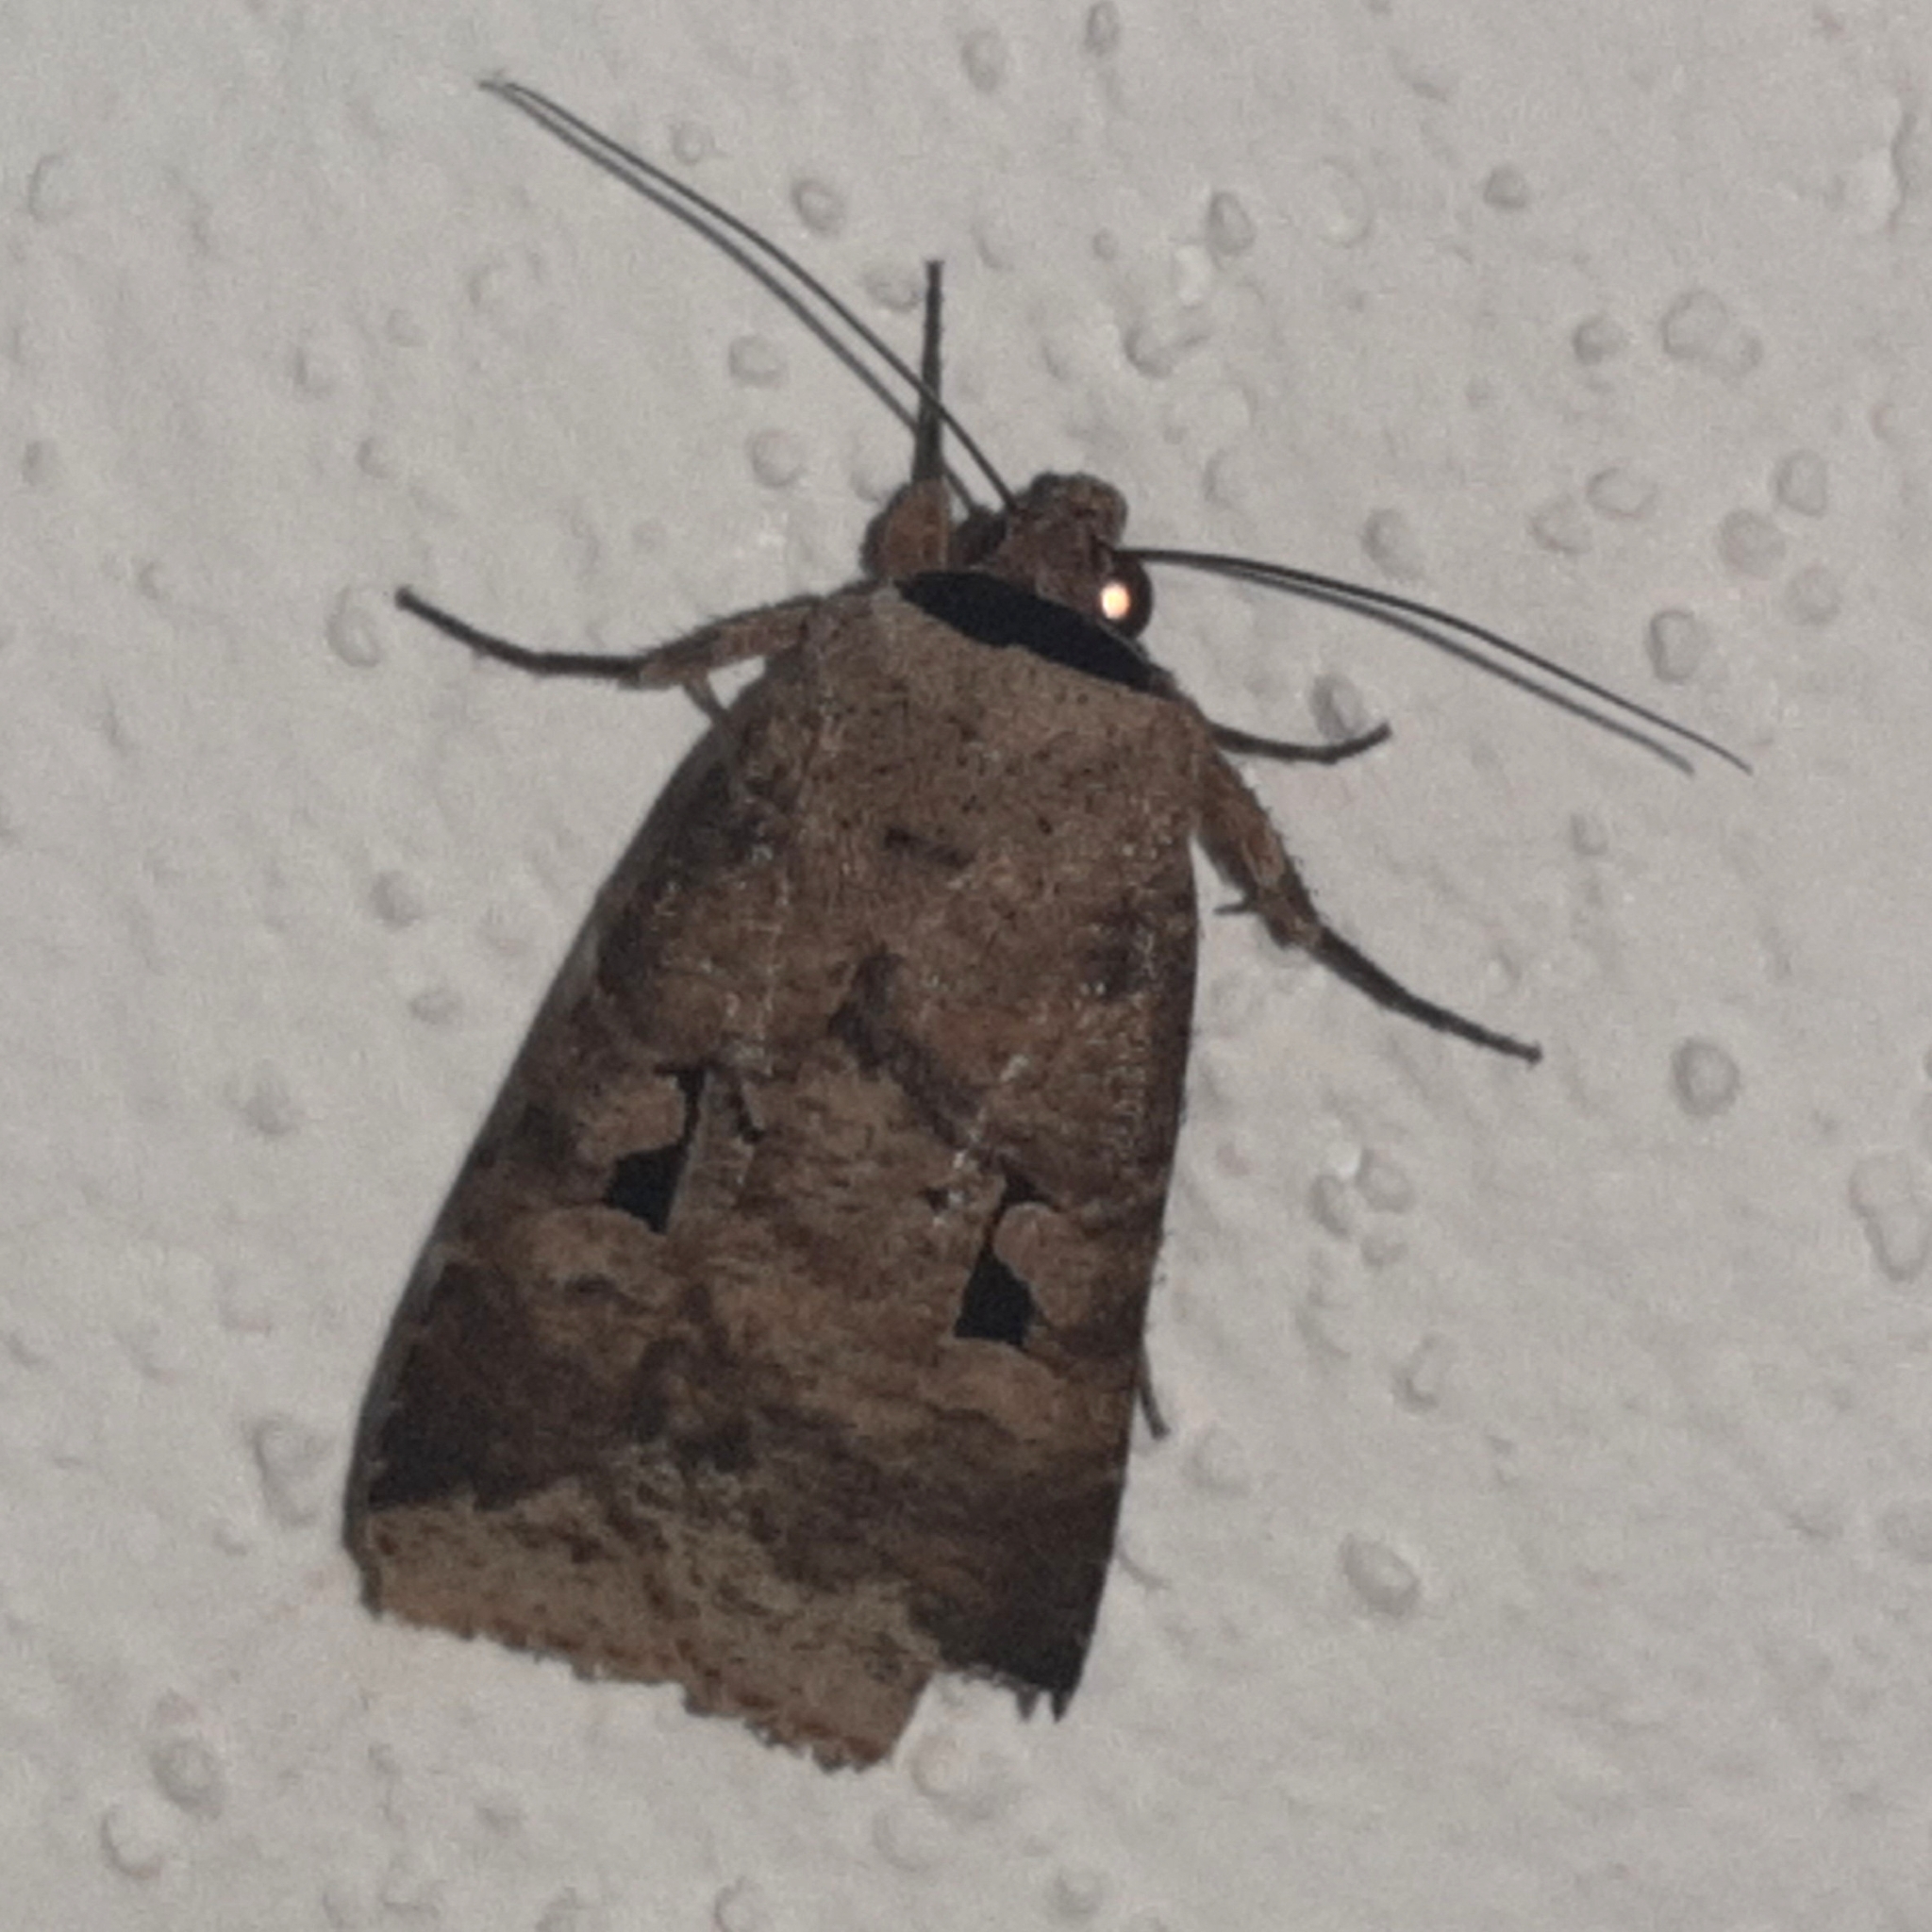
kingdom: Animalia
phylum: Arthropoda
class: Insecta
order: Lepidoptera
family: Noctuidae
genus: Praina
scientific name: Praina
